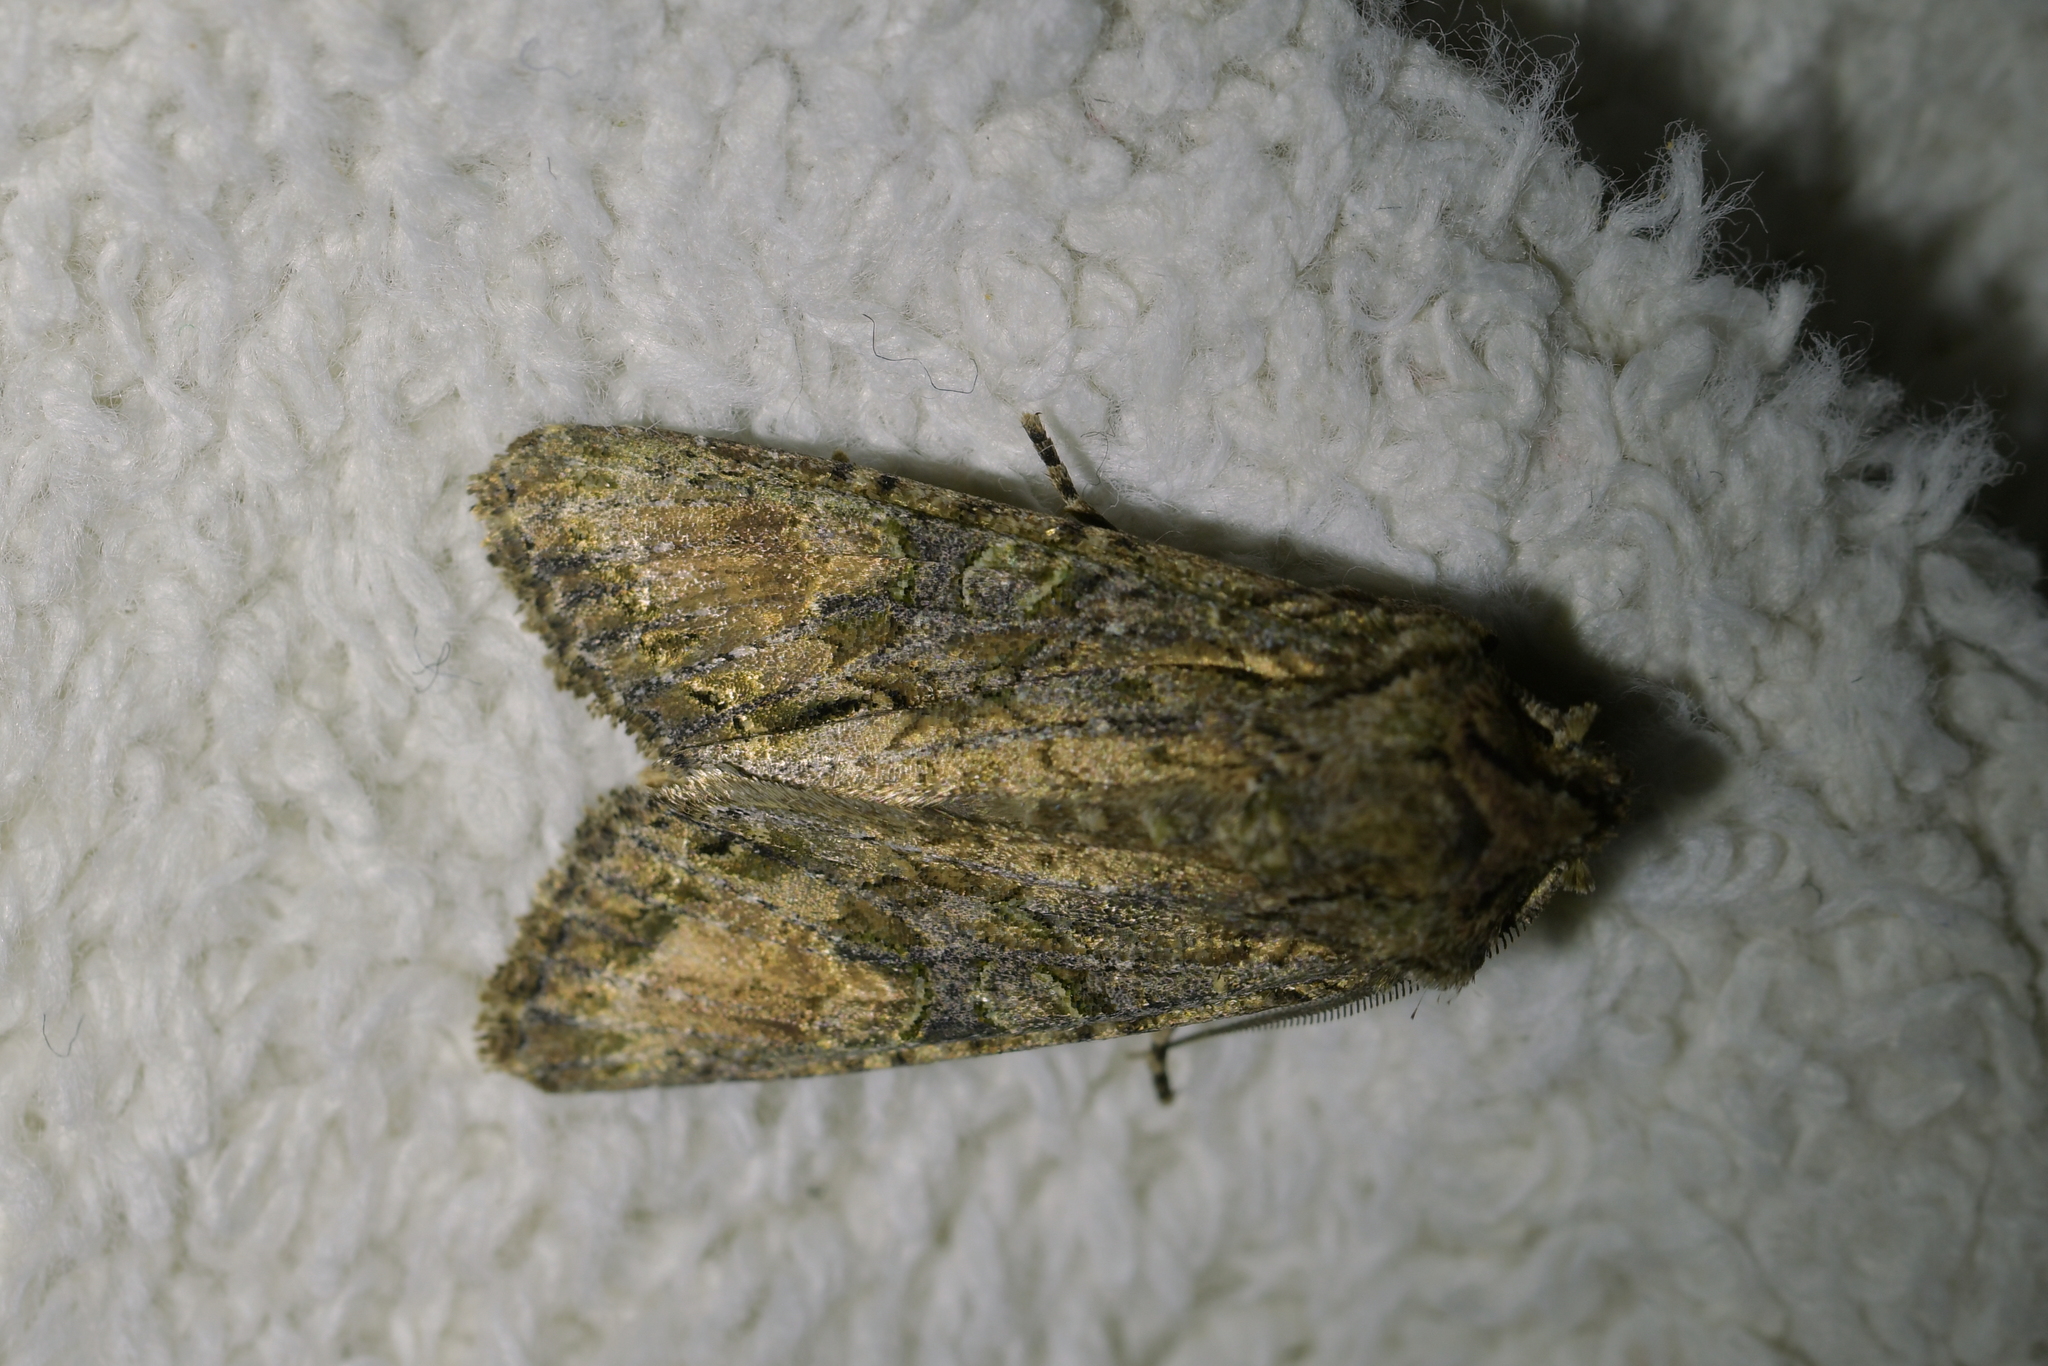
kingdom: Animalia
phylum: Arthropoda
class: Insecta
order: Lepidoptera
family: Noctuidae
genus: Ichneutica
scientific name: Ichneutica mutans
